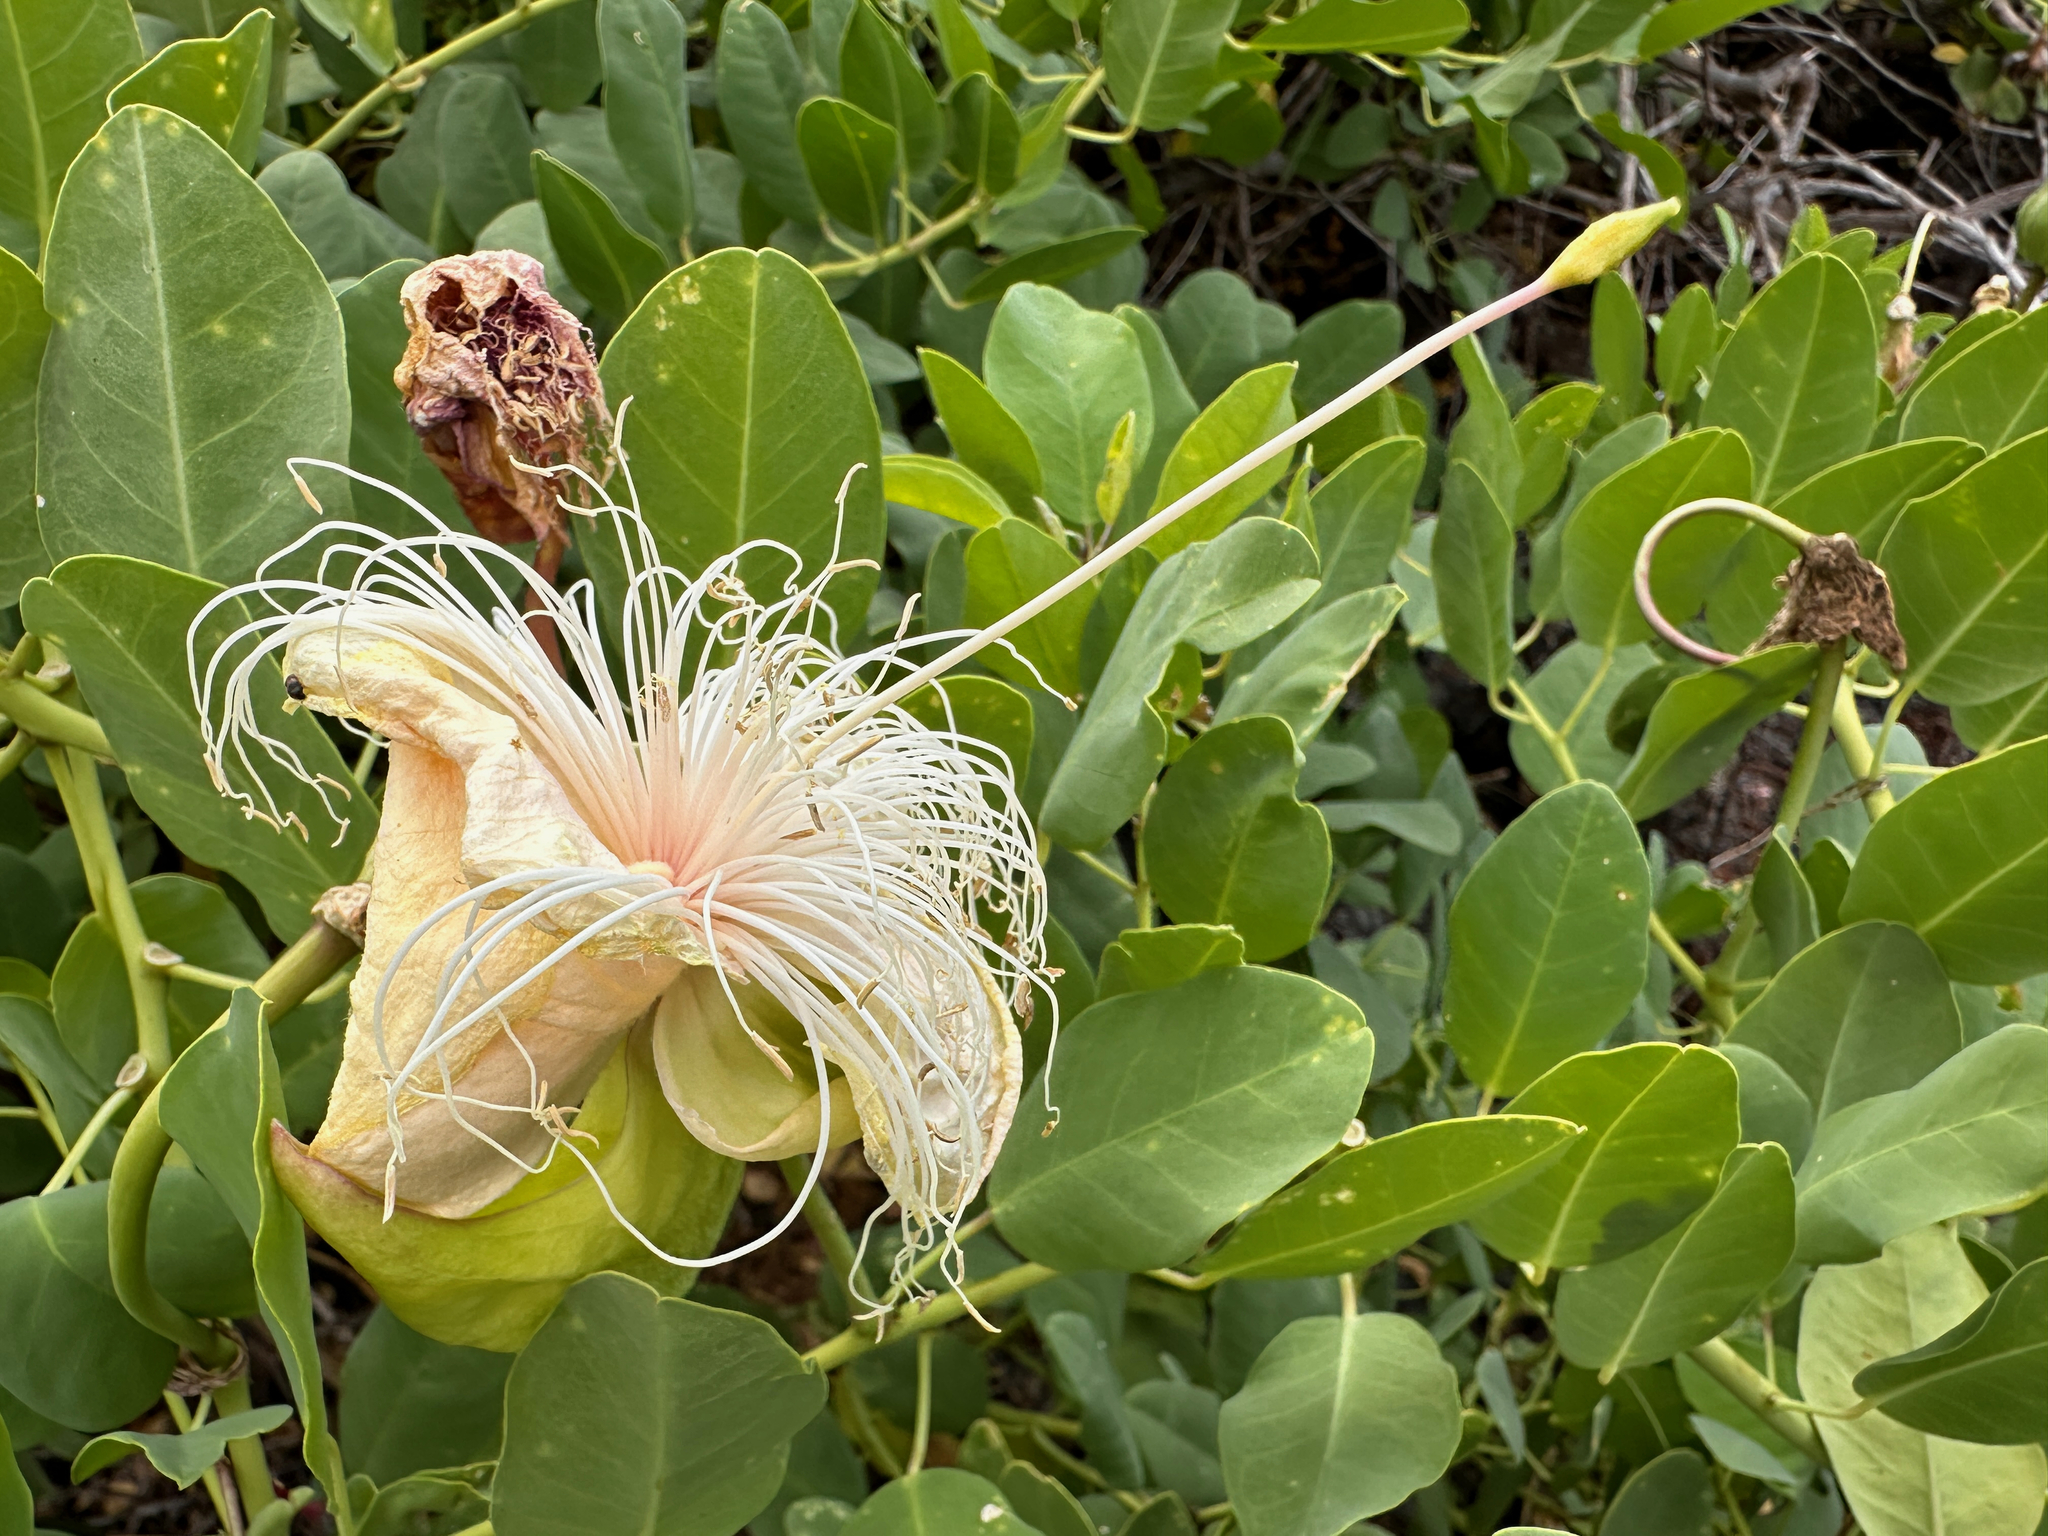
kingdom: Plantae
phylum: Tracheophyta
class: Magnoliopsida
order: Brassicales
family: Capparaceae
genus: Capparis
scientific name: Capparis spinosa
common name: Caper
